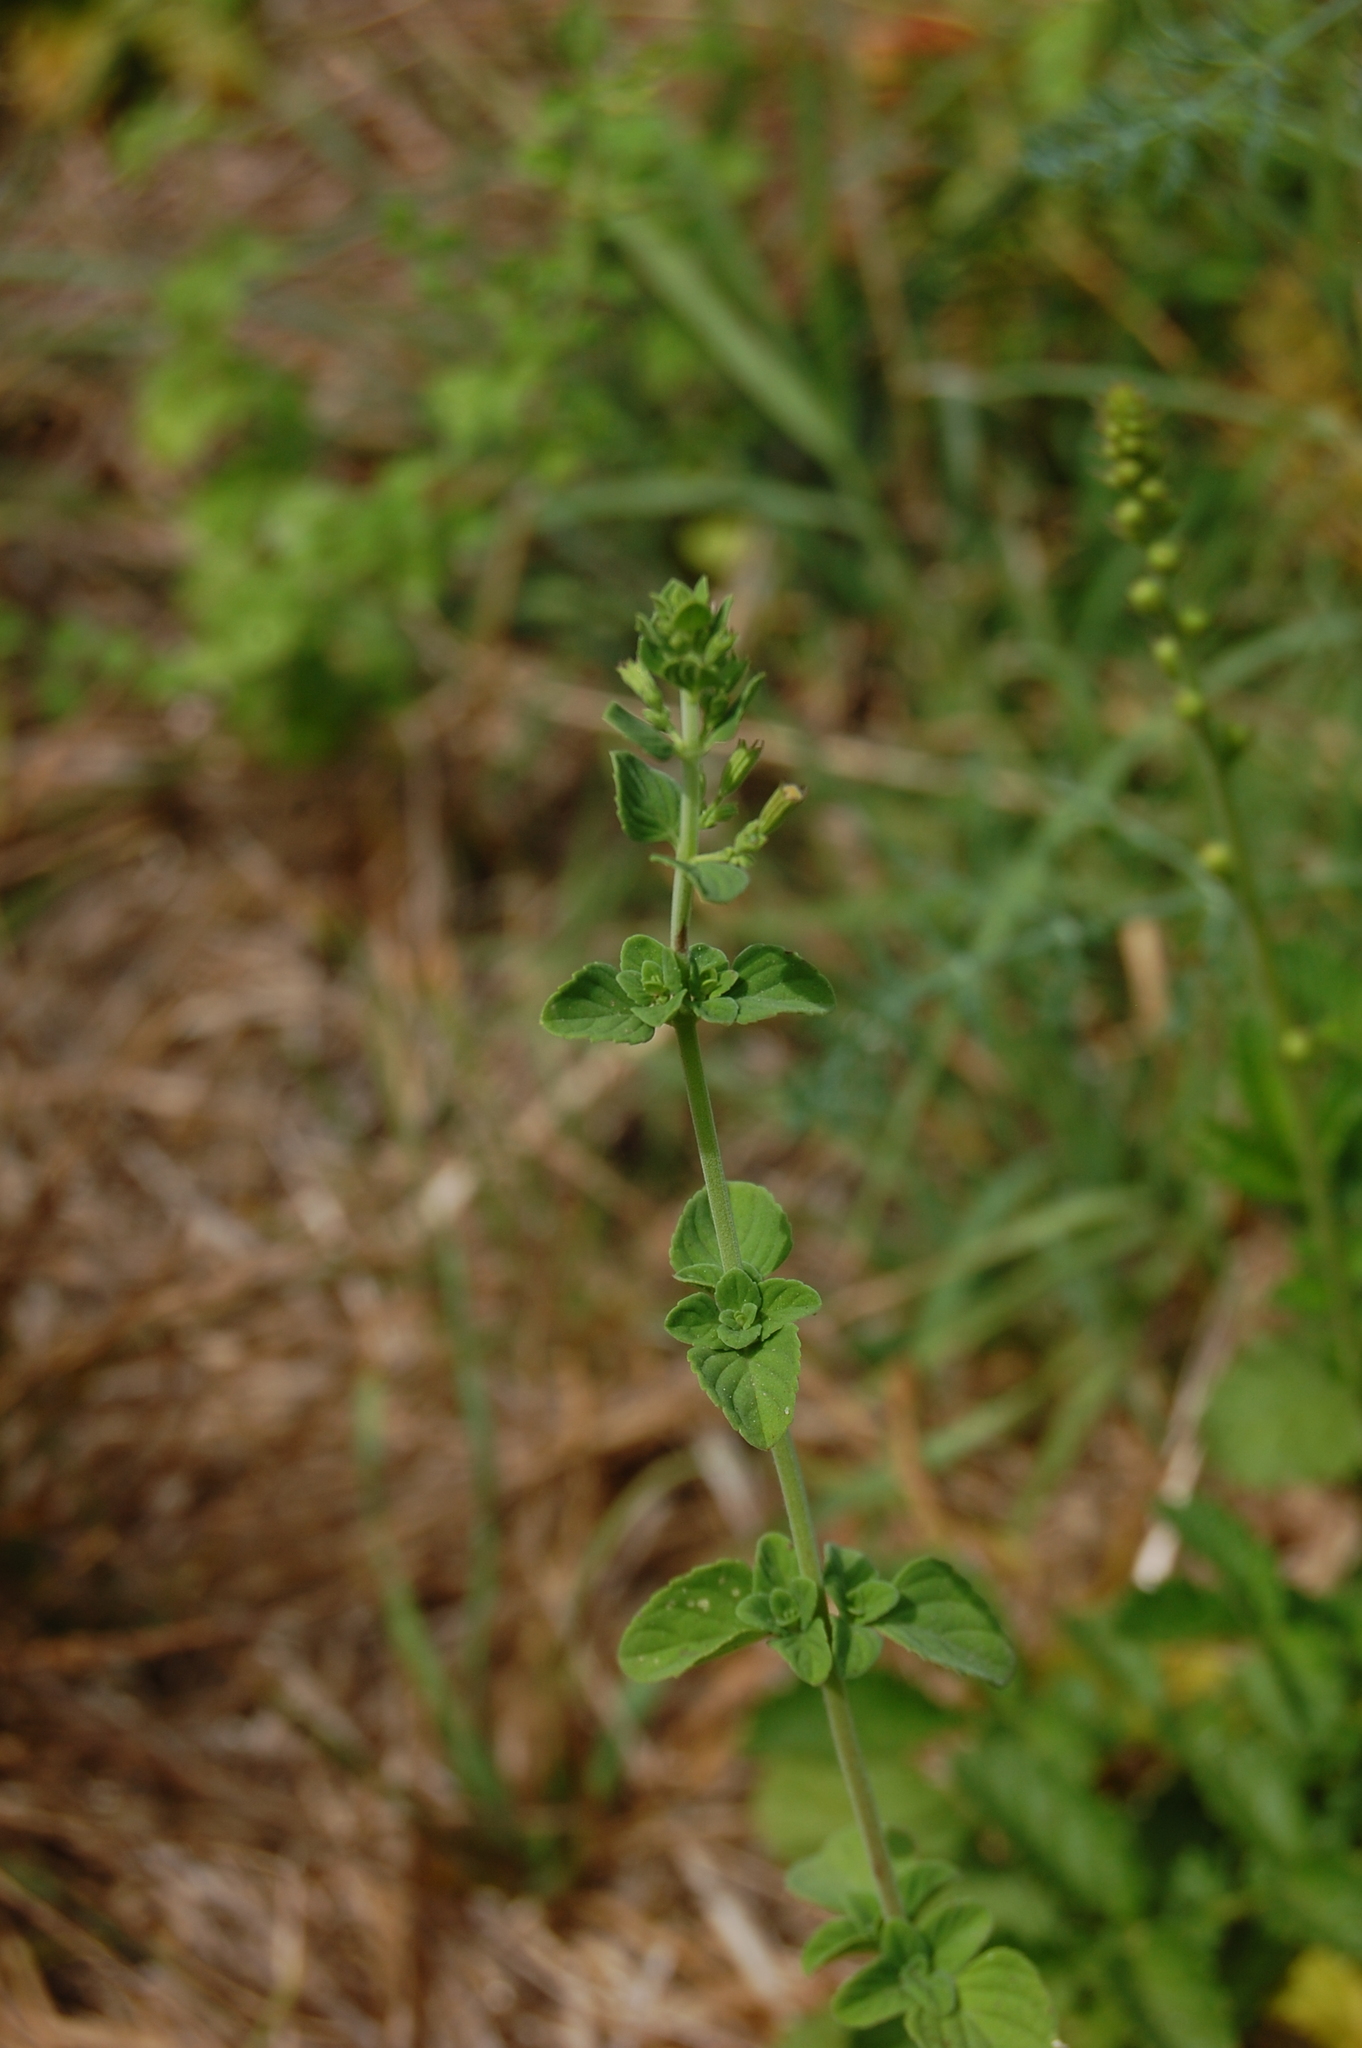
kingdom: Plantae
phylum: Tracheophyta
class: Magnoliopsida
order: Lamiales
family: Lamiaceae
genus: Clinopodium
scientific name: Clinopodium nepeta
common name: Lesser calamint
